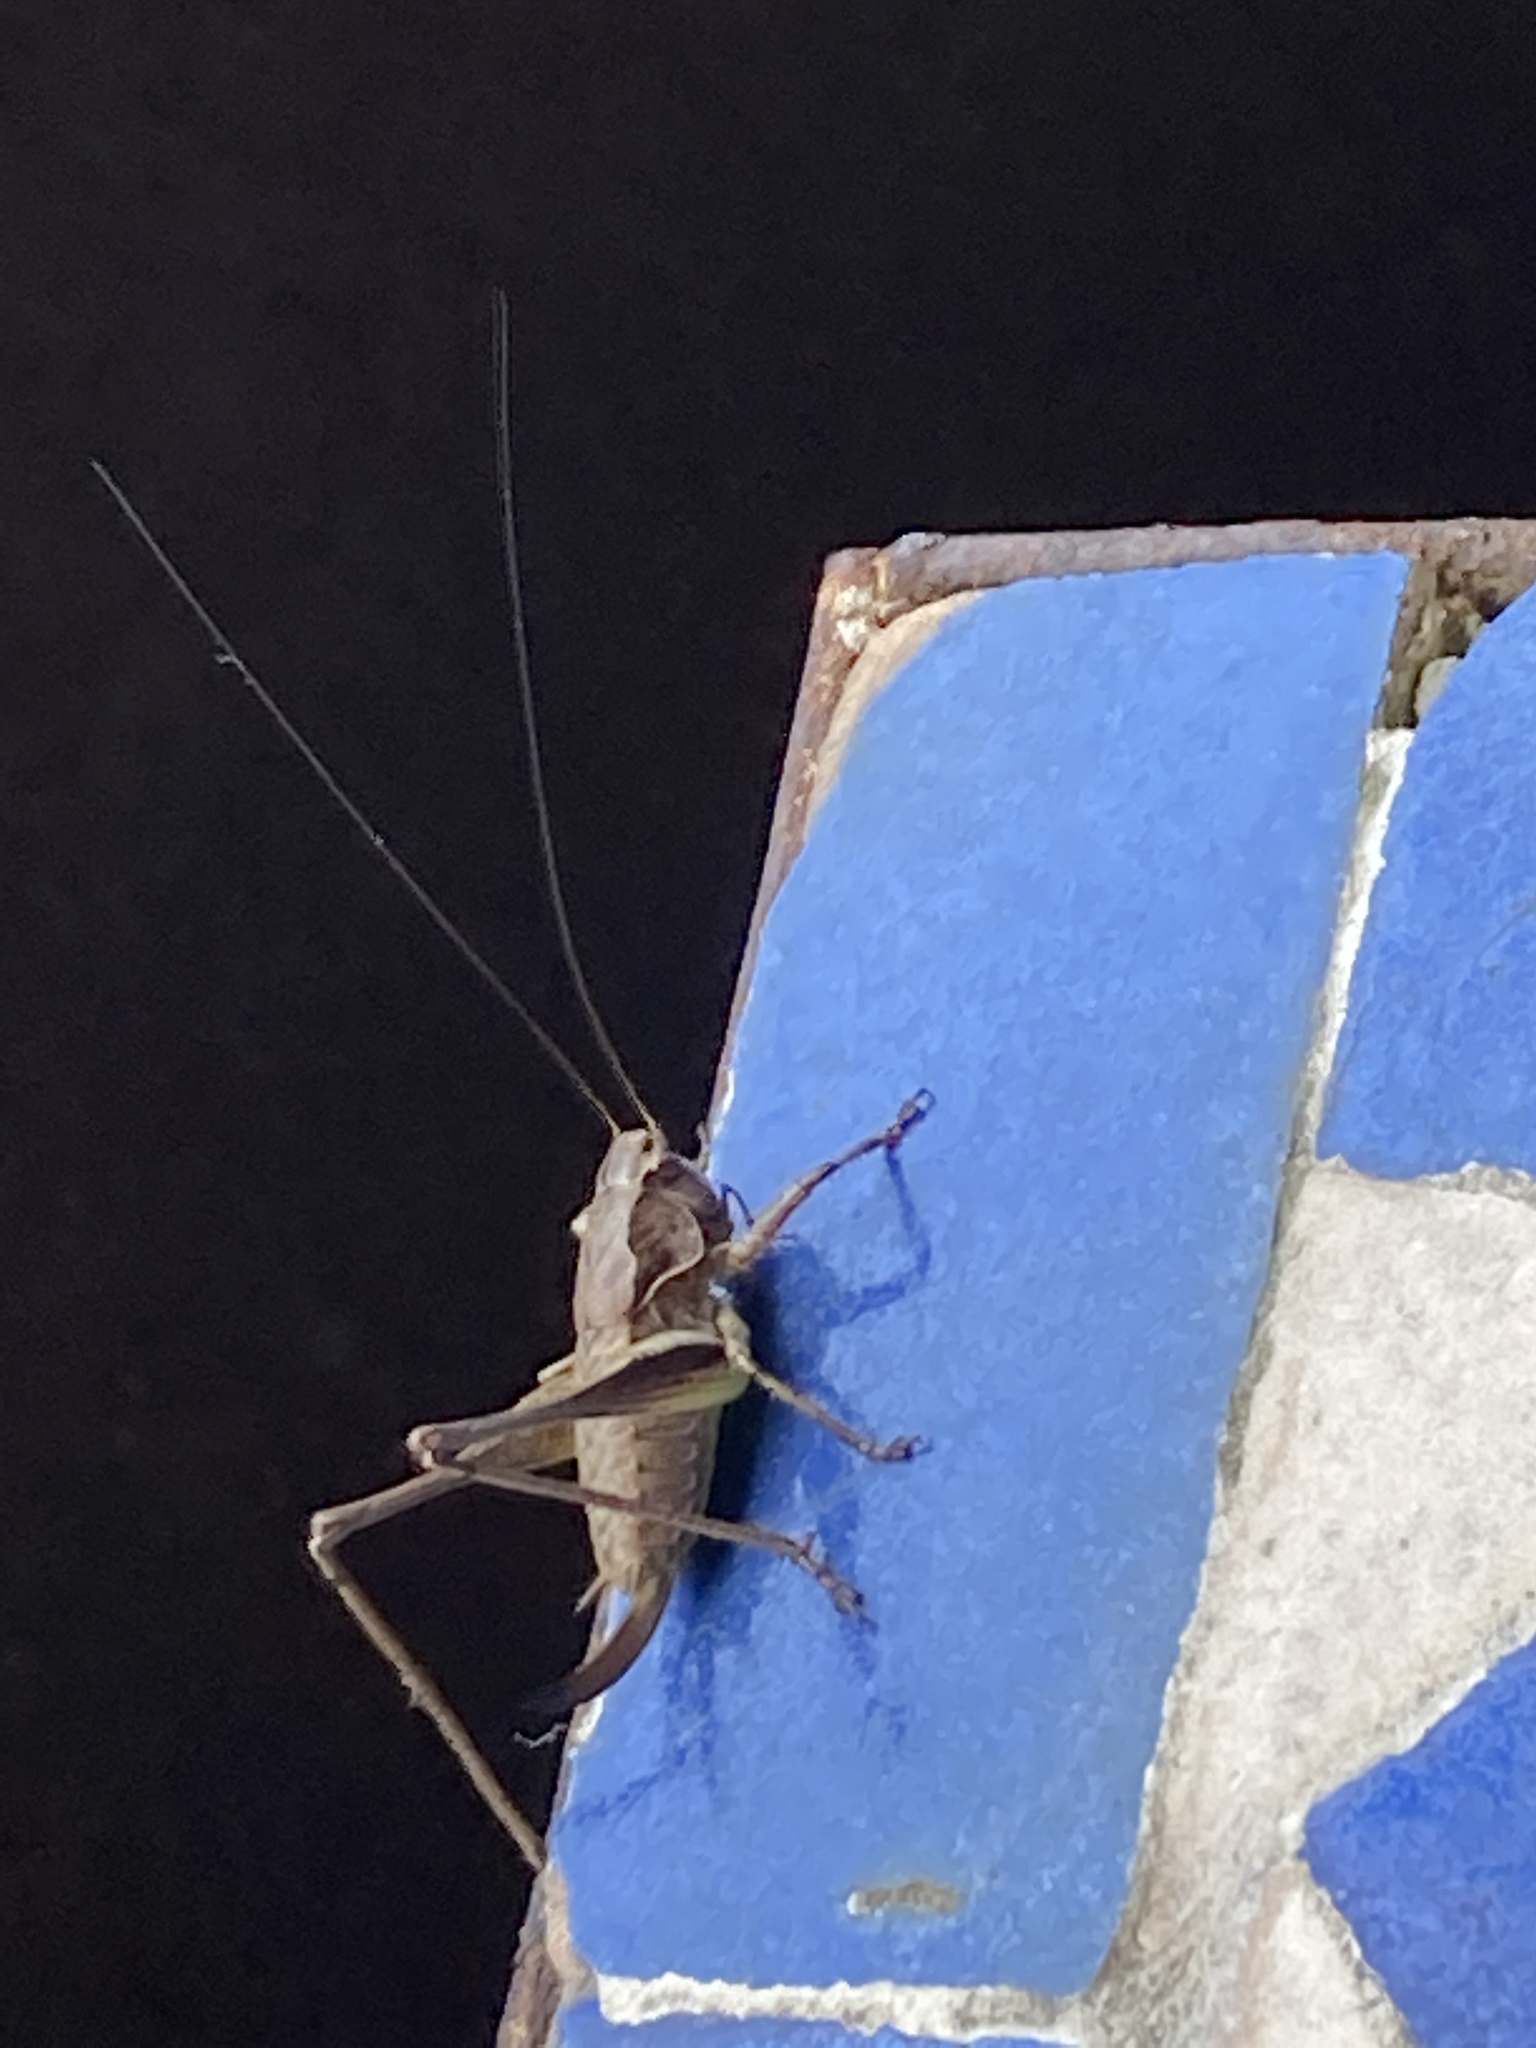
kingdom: Animalia
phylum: Arthropoda
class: Insecta
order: Orthoptera
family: Tettigoniidae
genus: Pholidoptera
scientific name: Pholidoptera griseoaptera
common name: Dark bush-cricket
